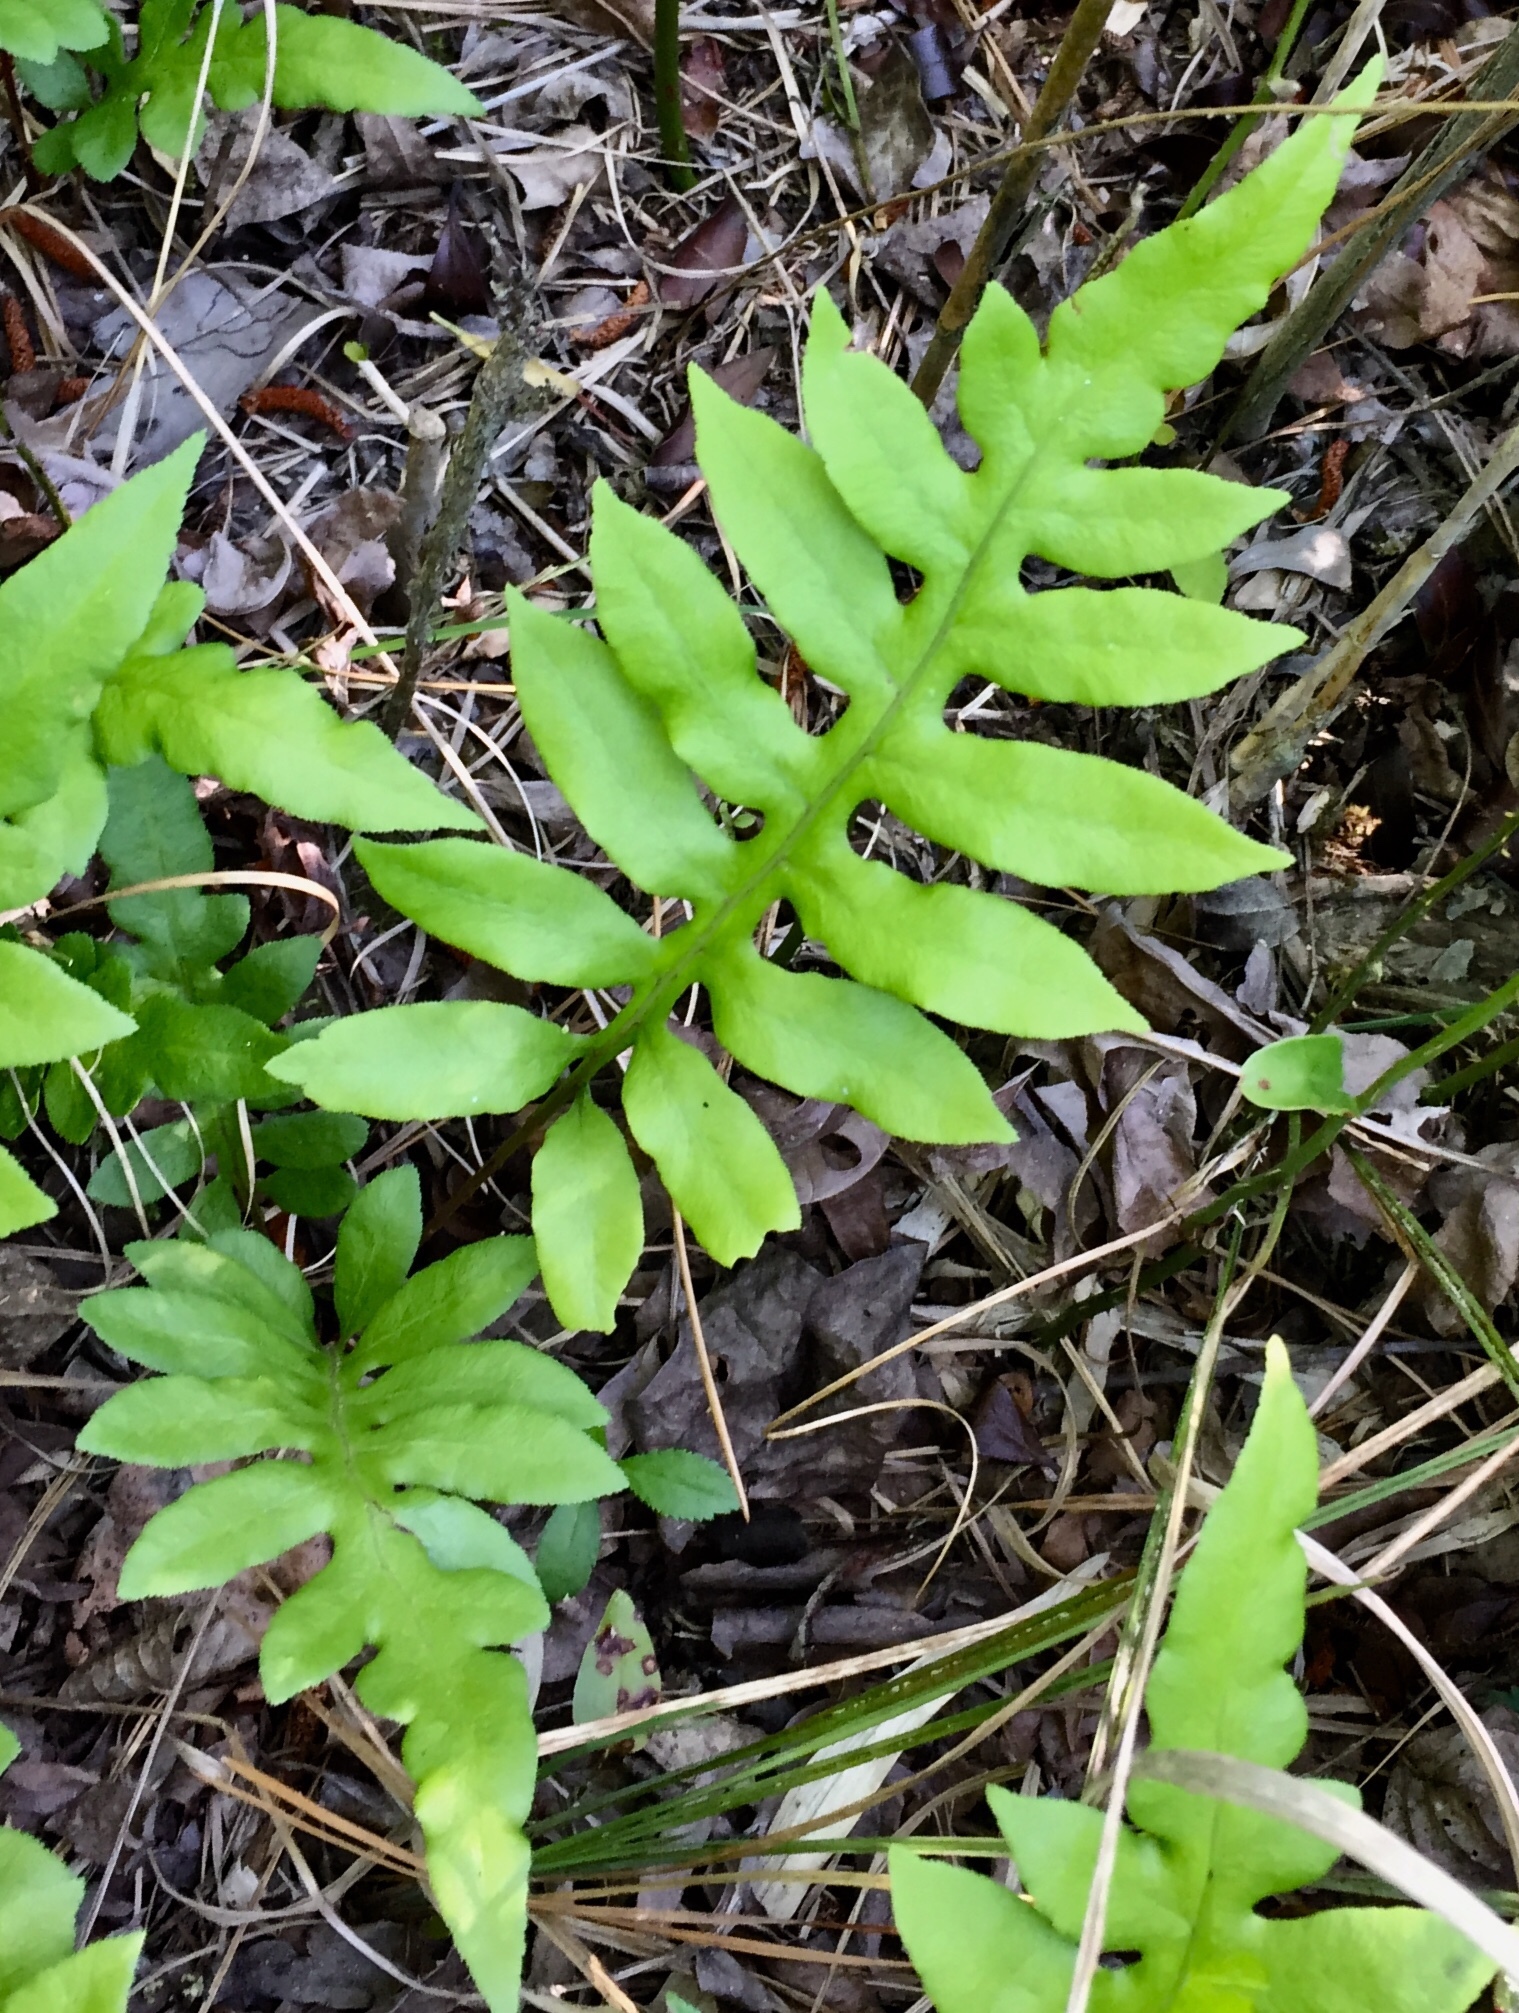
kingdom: Plantae
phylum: Tracheophyta
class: Polypodiopsida
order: Polypodiales
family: Blechnaceae
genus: Lorinseria
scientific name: Lorinseria areolata
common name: Dwarf chain fern
